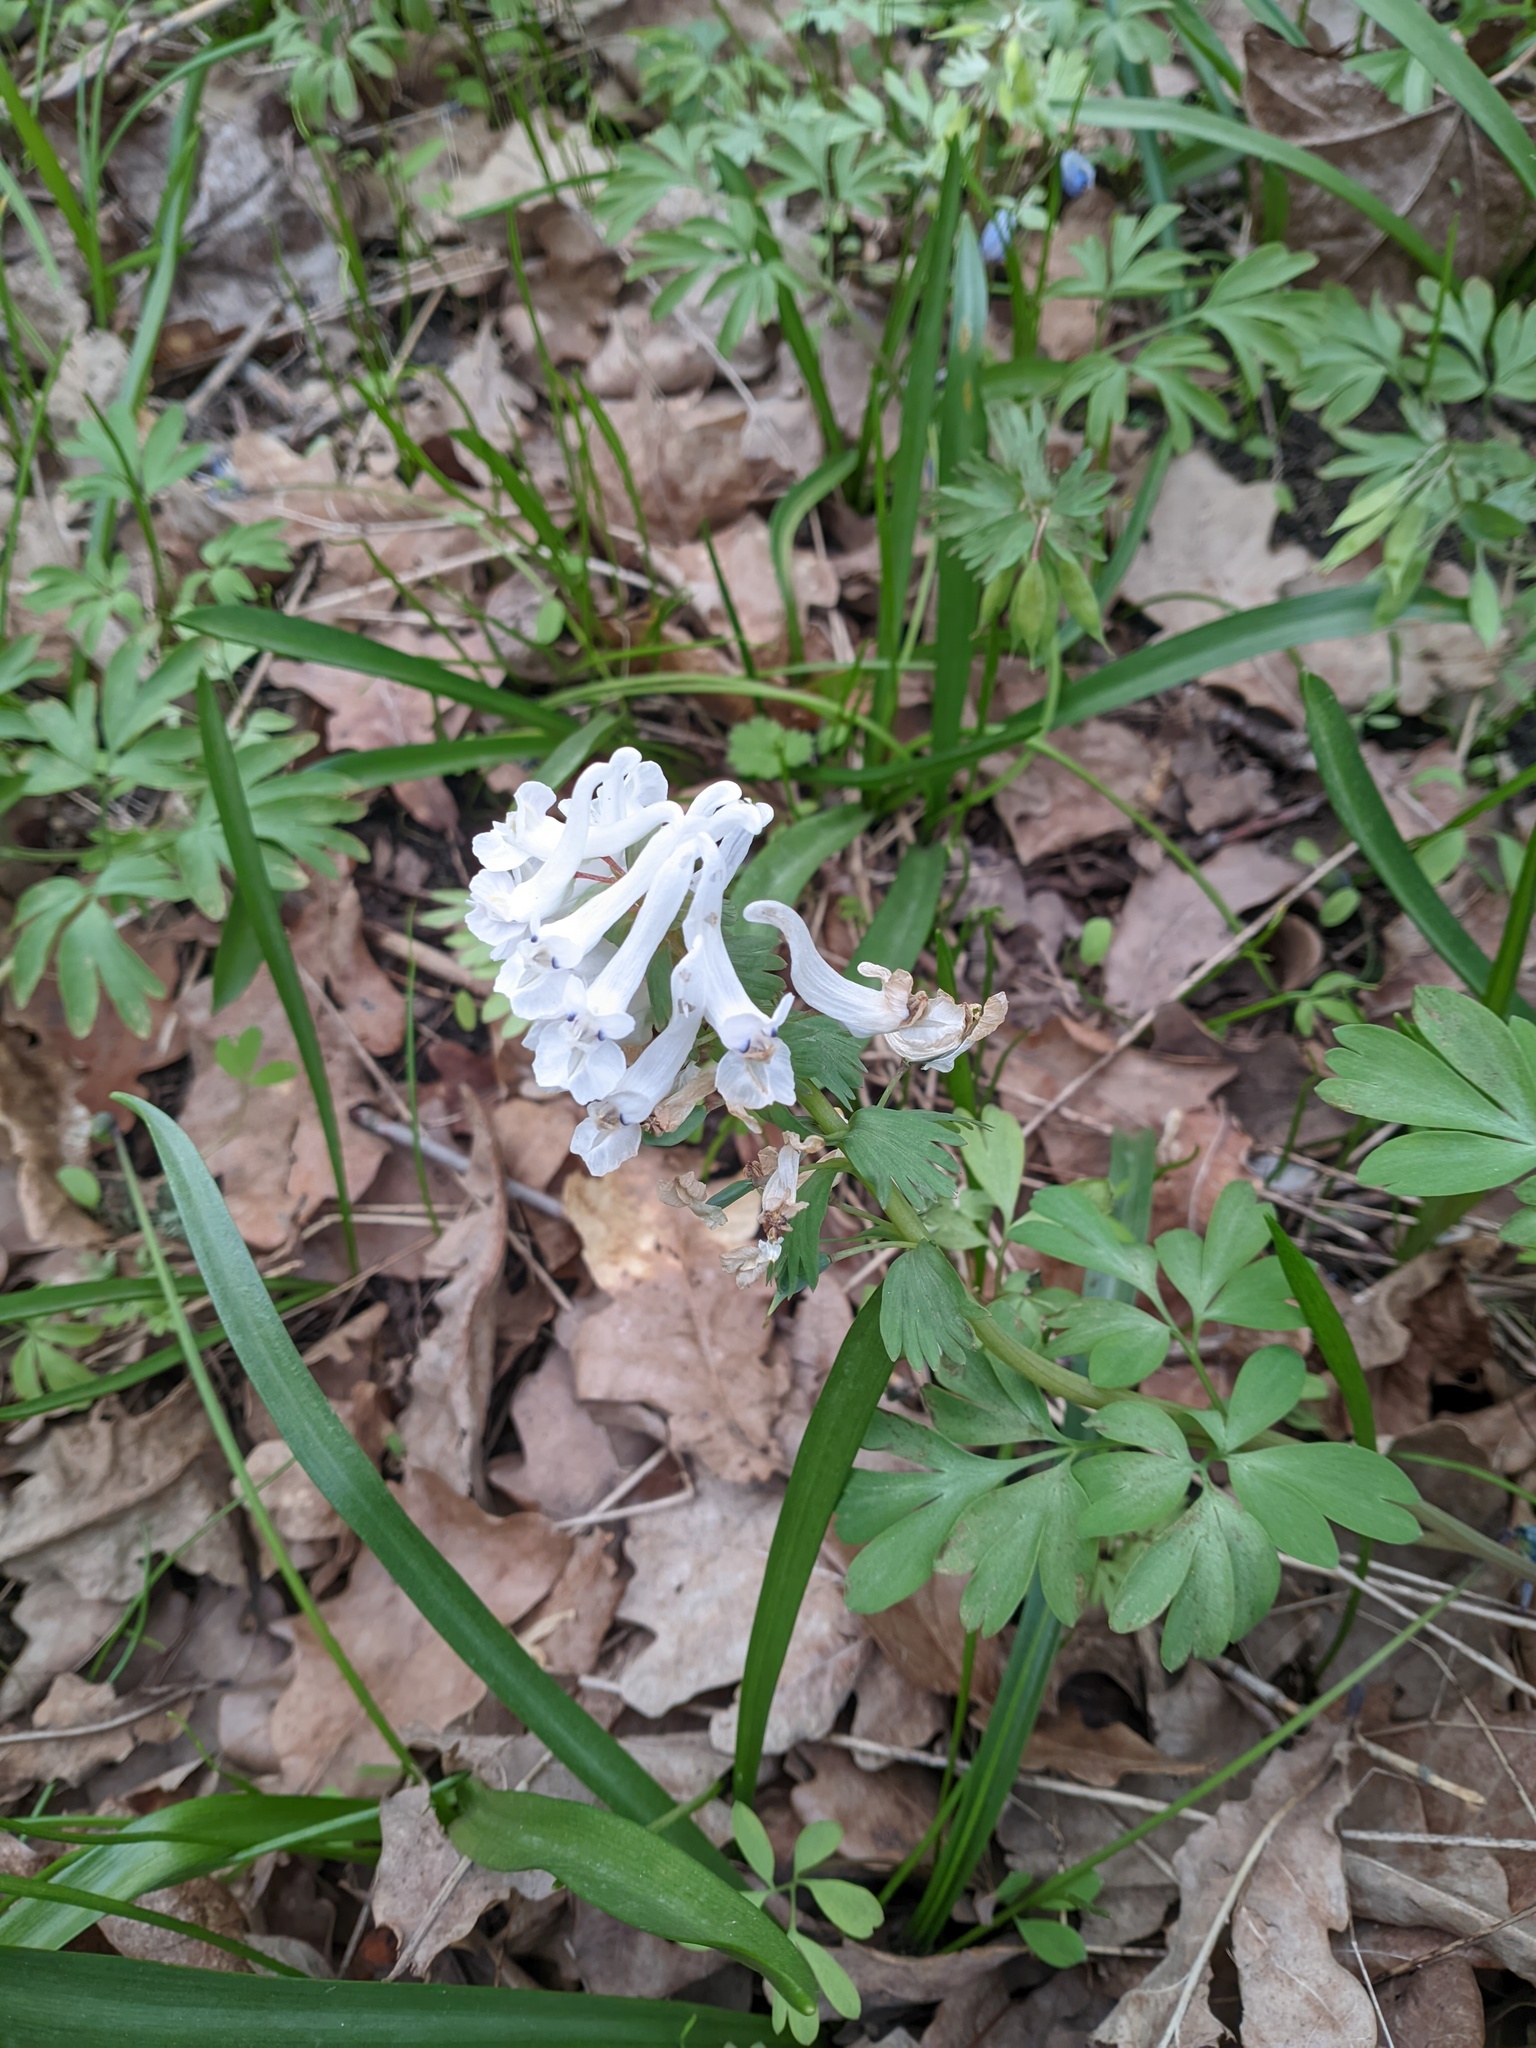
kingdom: Plantae
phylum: Tracheophyta
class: Magnoliopsida
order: Ranunculales
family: Papaveraceae
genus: Corydalis
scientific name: Corydalis solida
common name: Bird-in-a-bush
